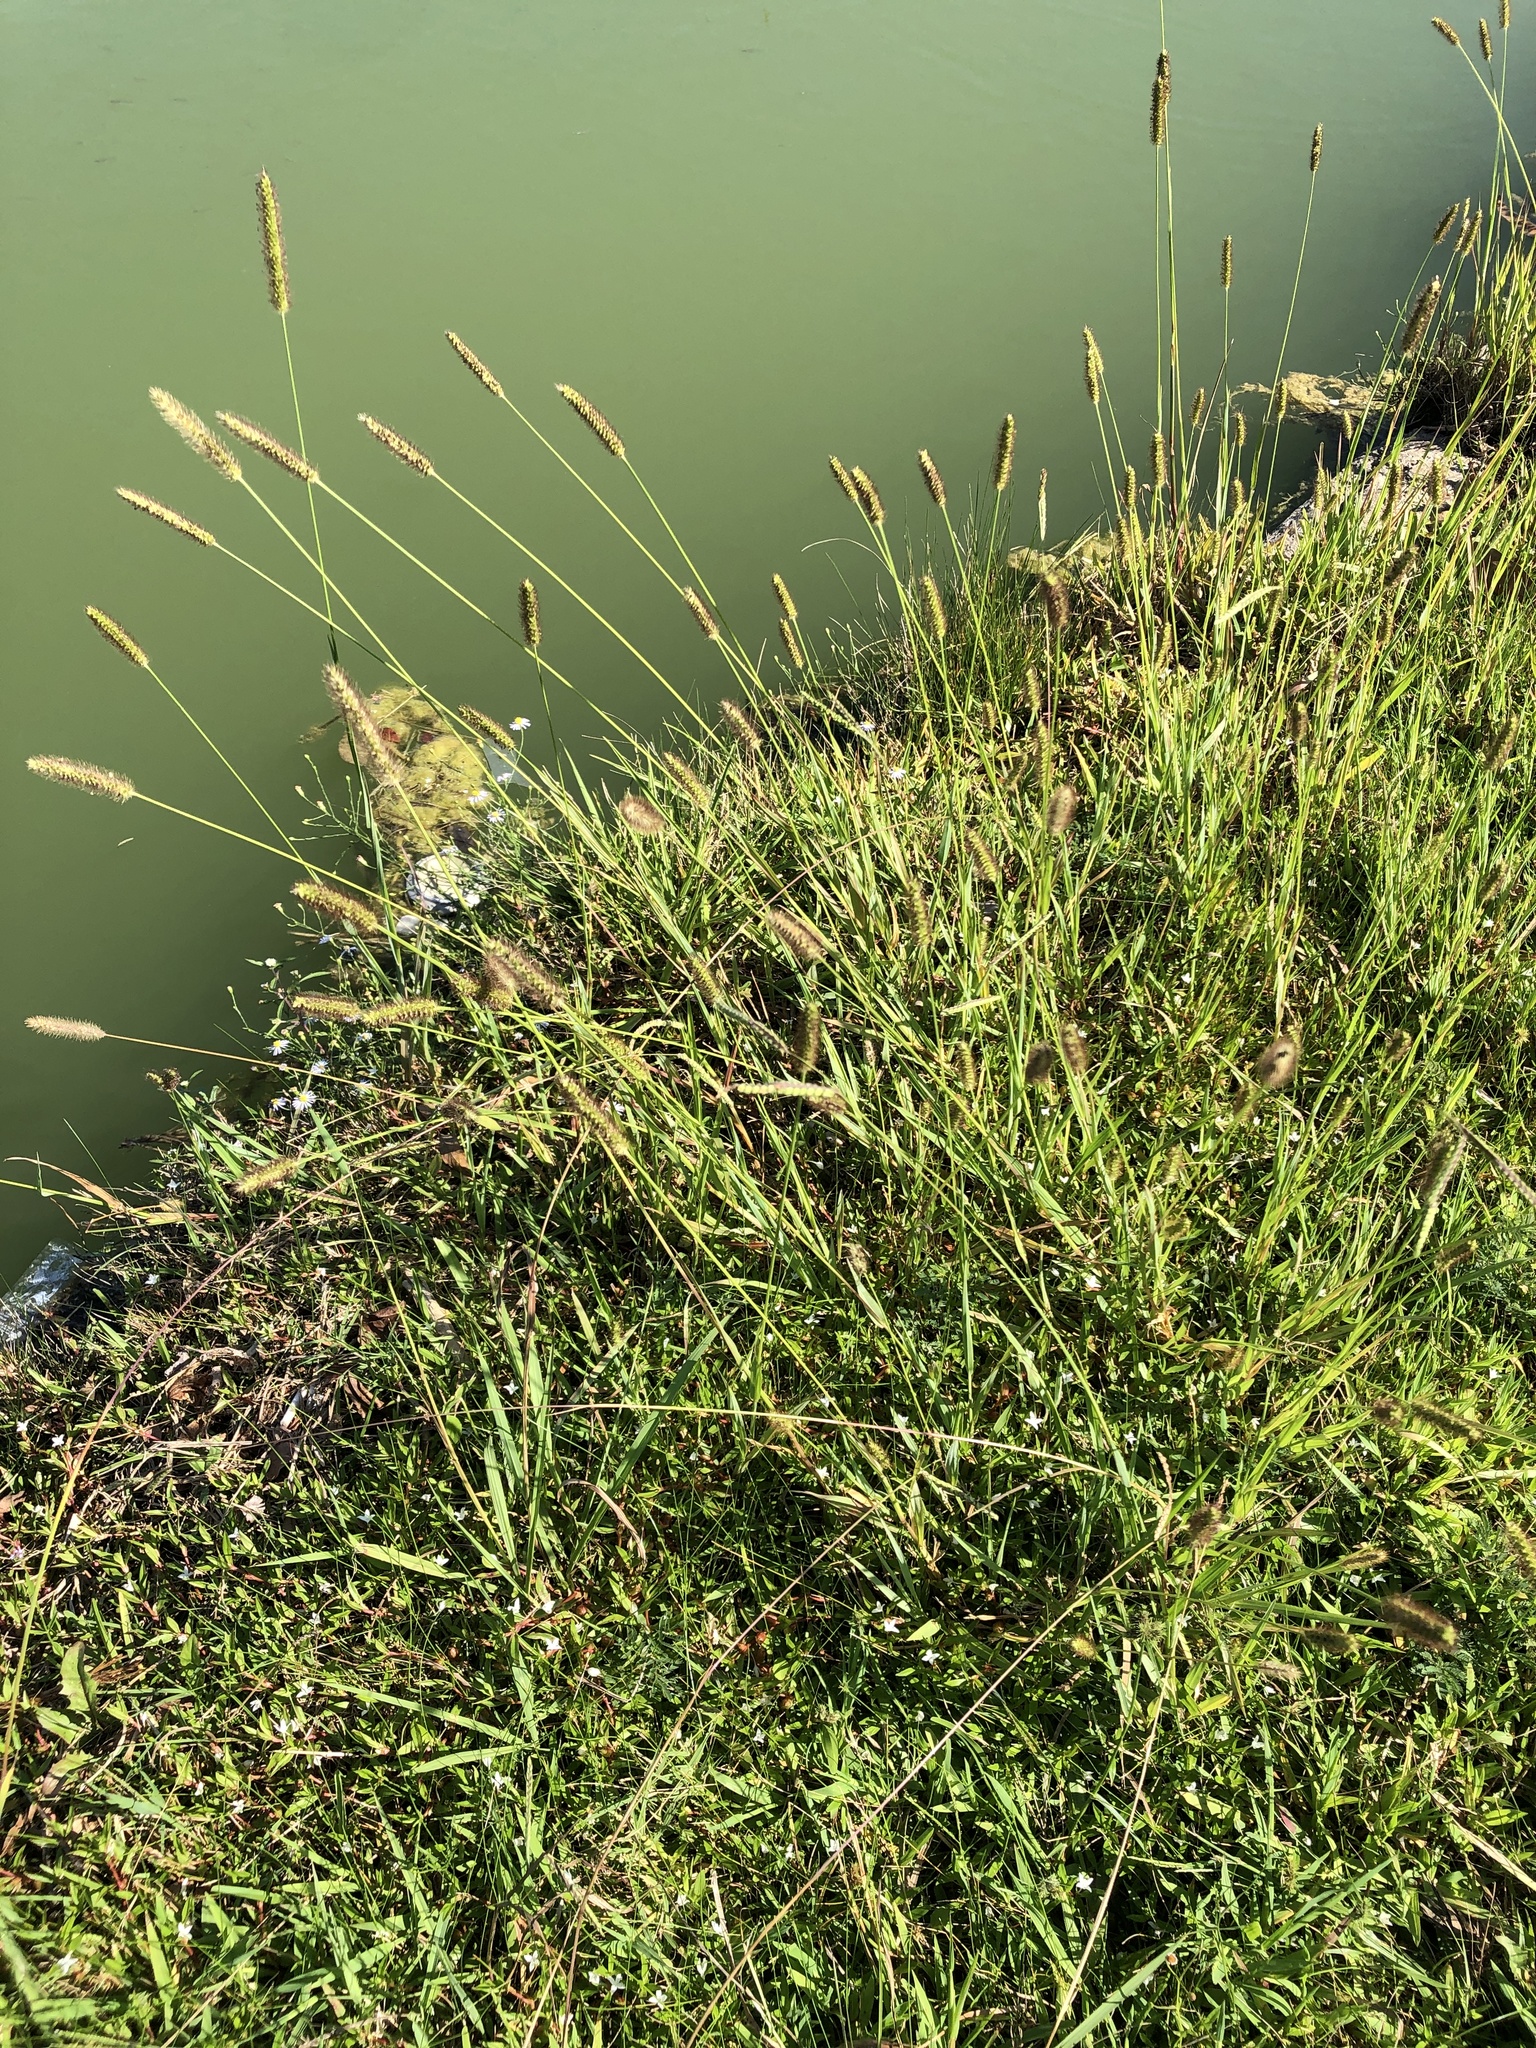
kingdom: Plantae
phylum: Tracheophyta
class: Liliopsida
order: Poales
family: Poaceae
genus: Setaria
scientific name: Setaria parviflora
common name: Knotroot bristle-grass
